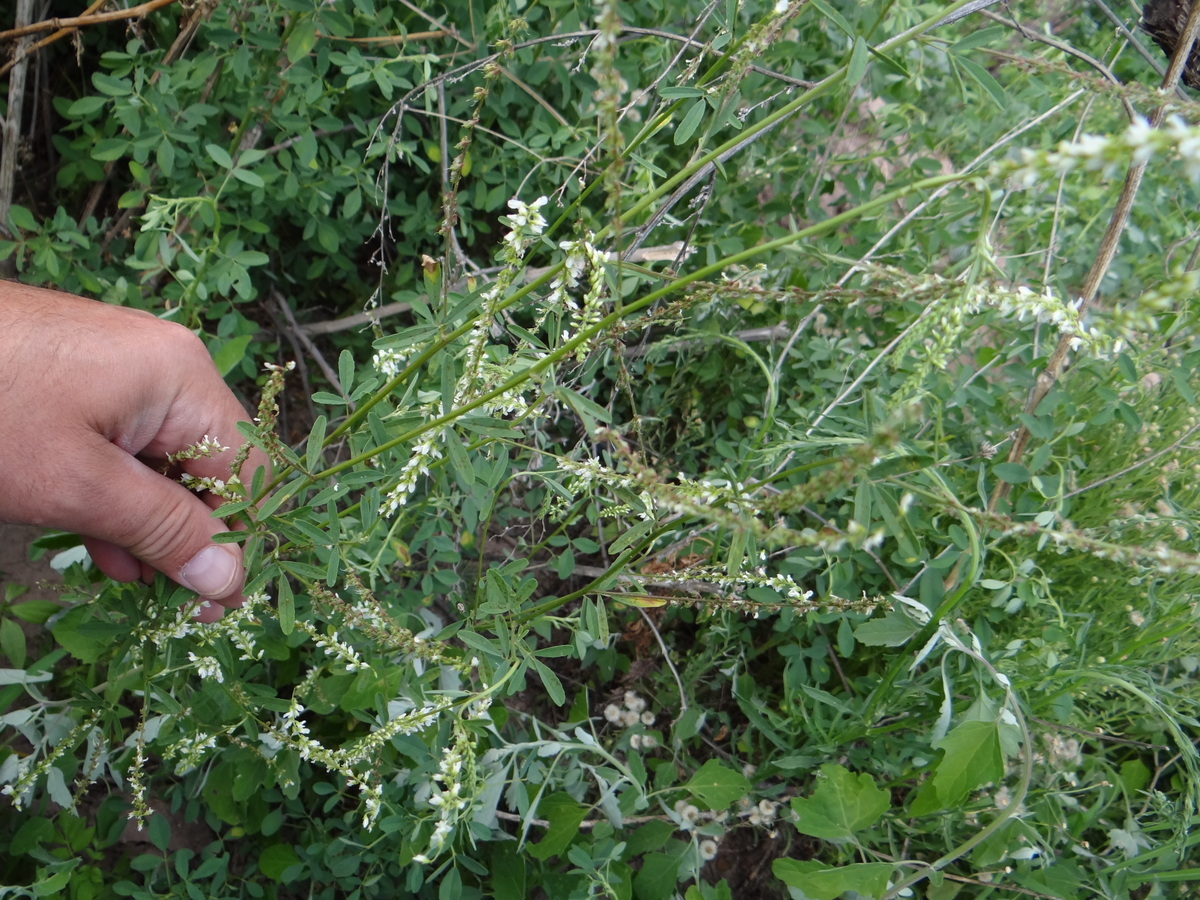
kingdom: Plantae
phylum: Tracheophyta
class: Magnoliopsida
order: Fabales
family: Fabaceae
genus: Melilotus
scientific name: Melilotus albus
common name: White melilot
